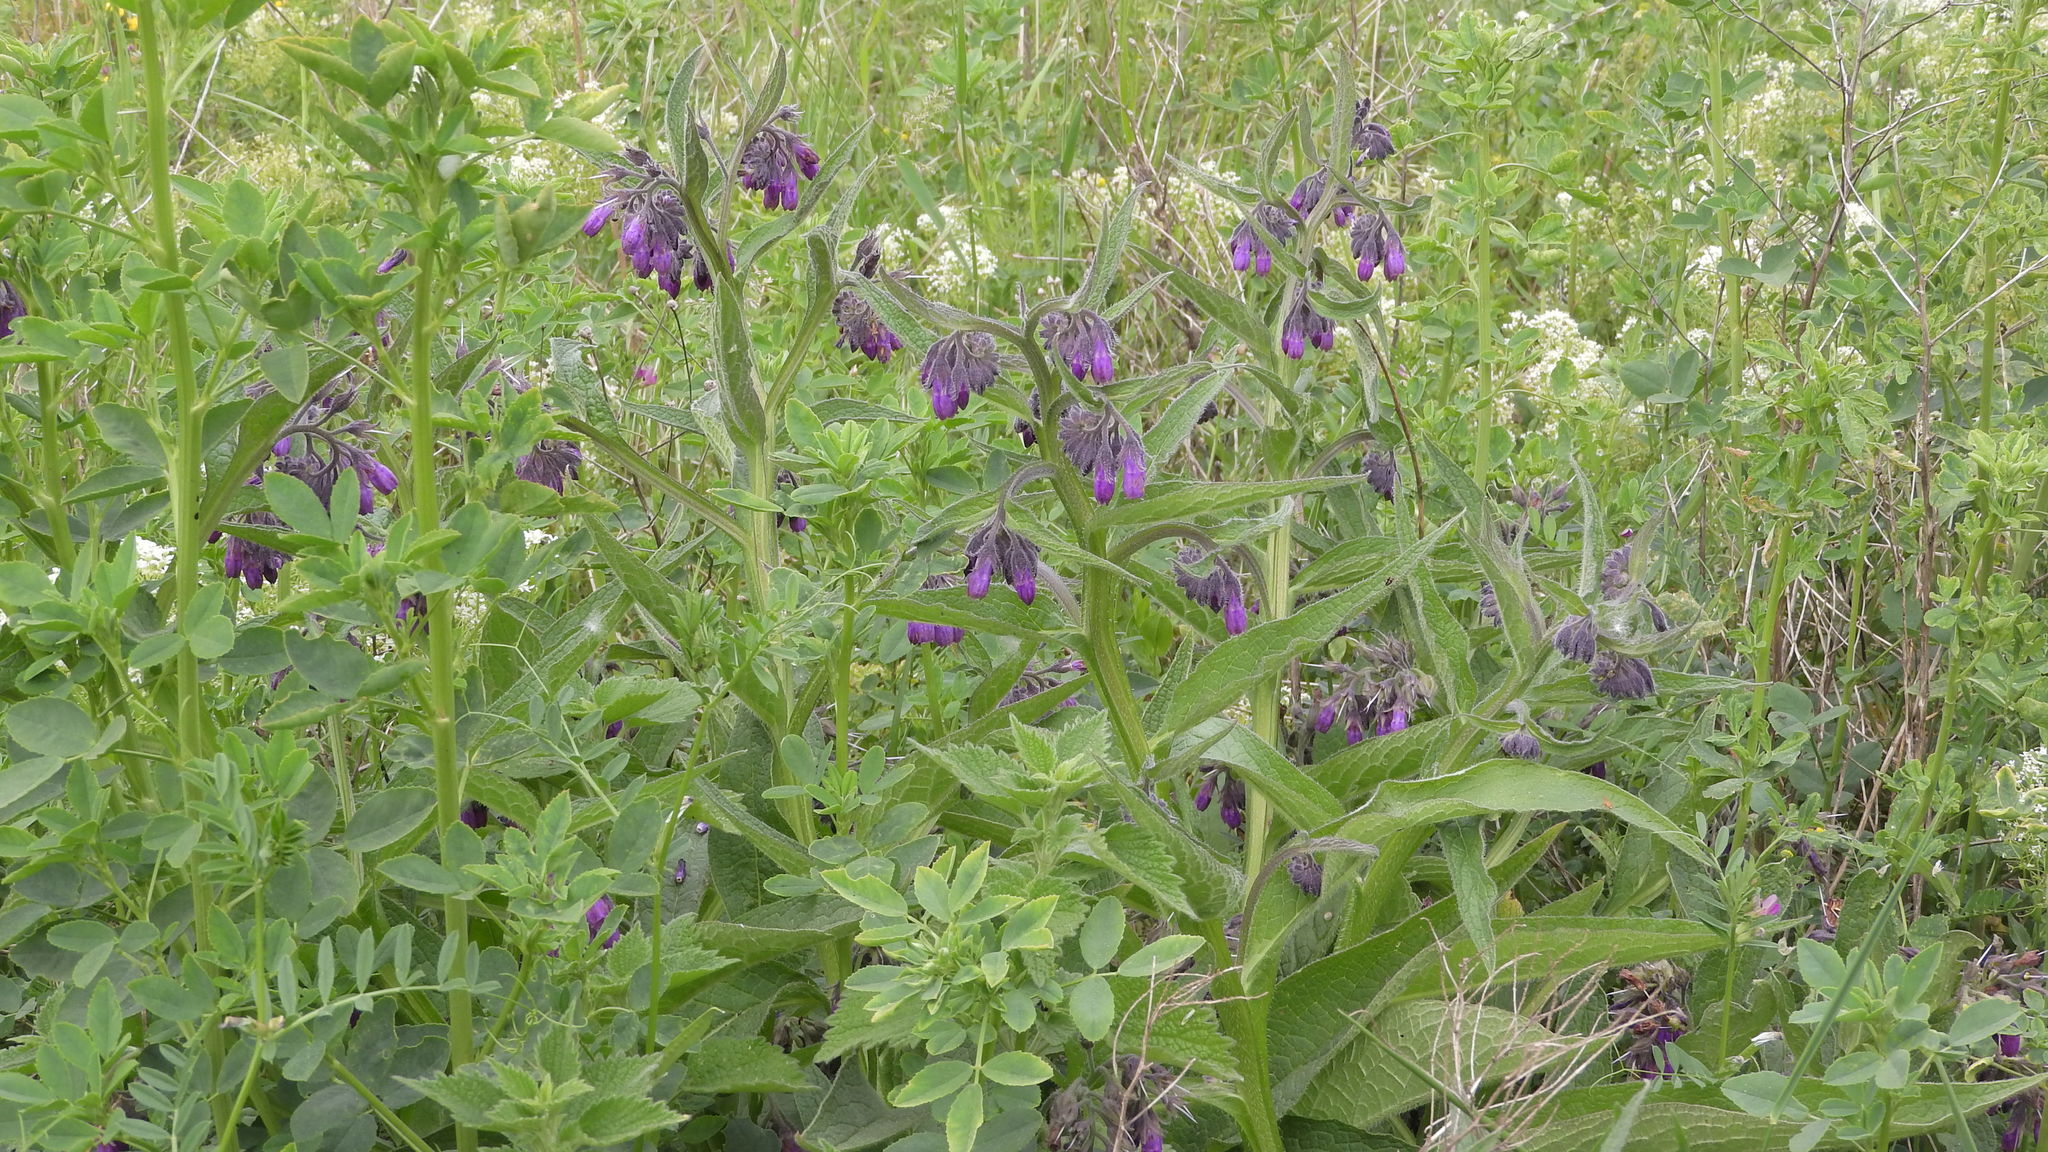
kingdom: Plantae
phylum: Tracheophyta
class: Magnoliopsida
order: Boraginales
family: Boraginaceae
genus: Symphytum
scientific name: Symphytum officinale
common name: Common comfrey
